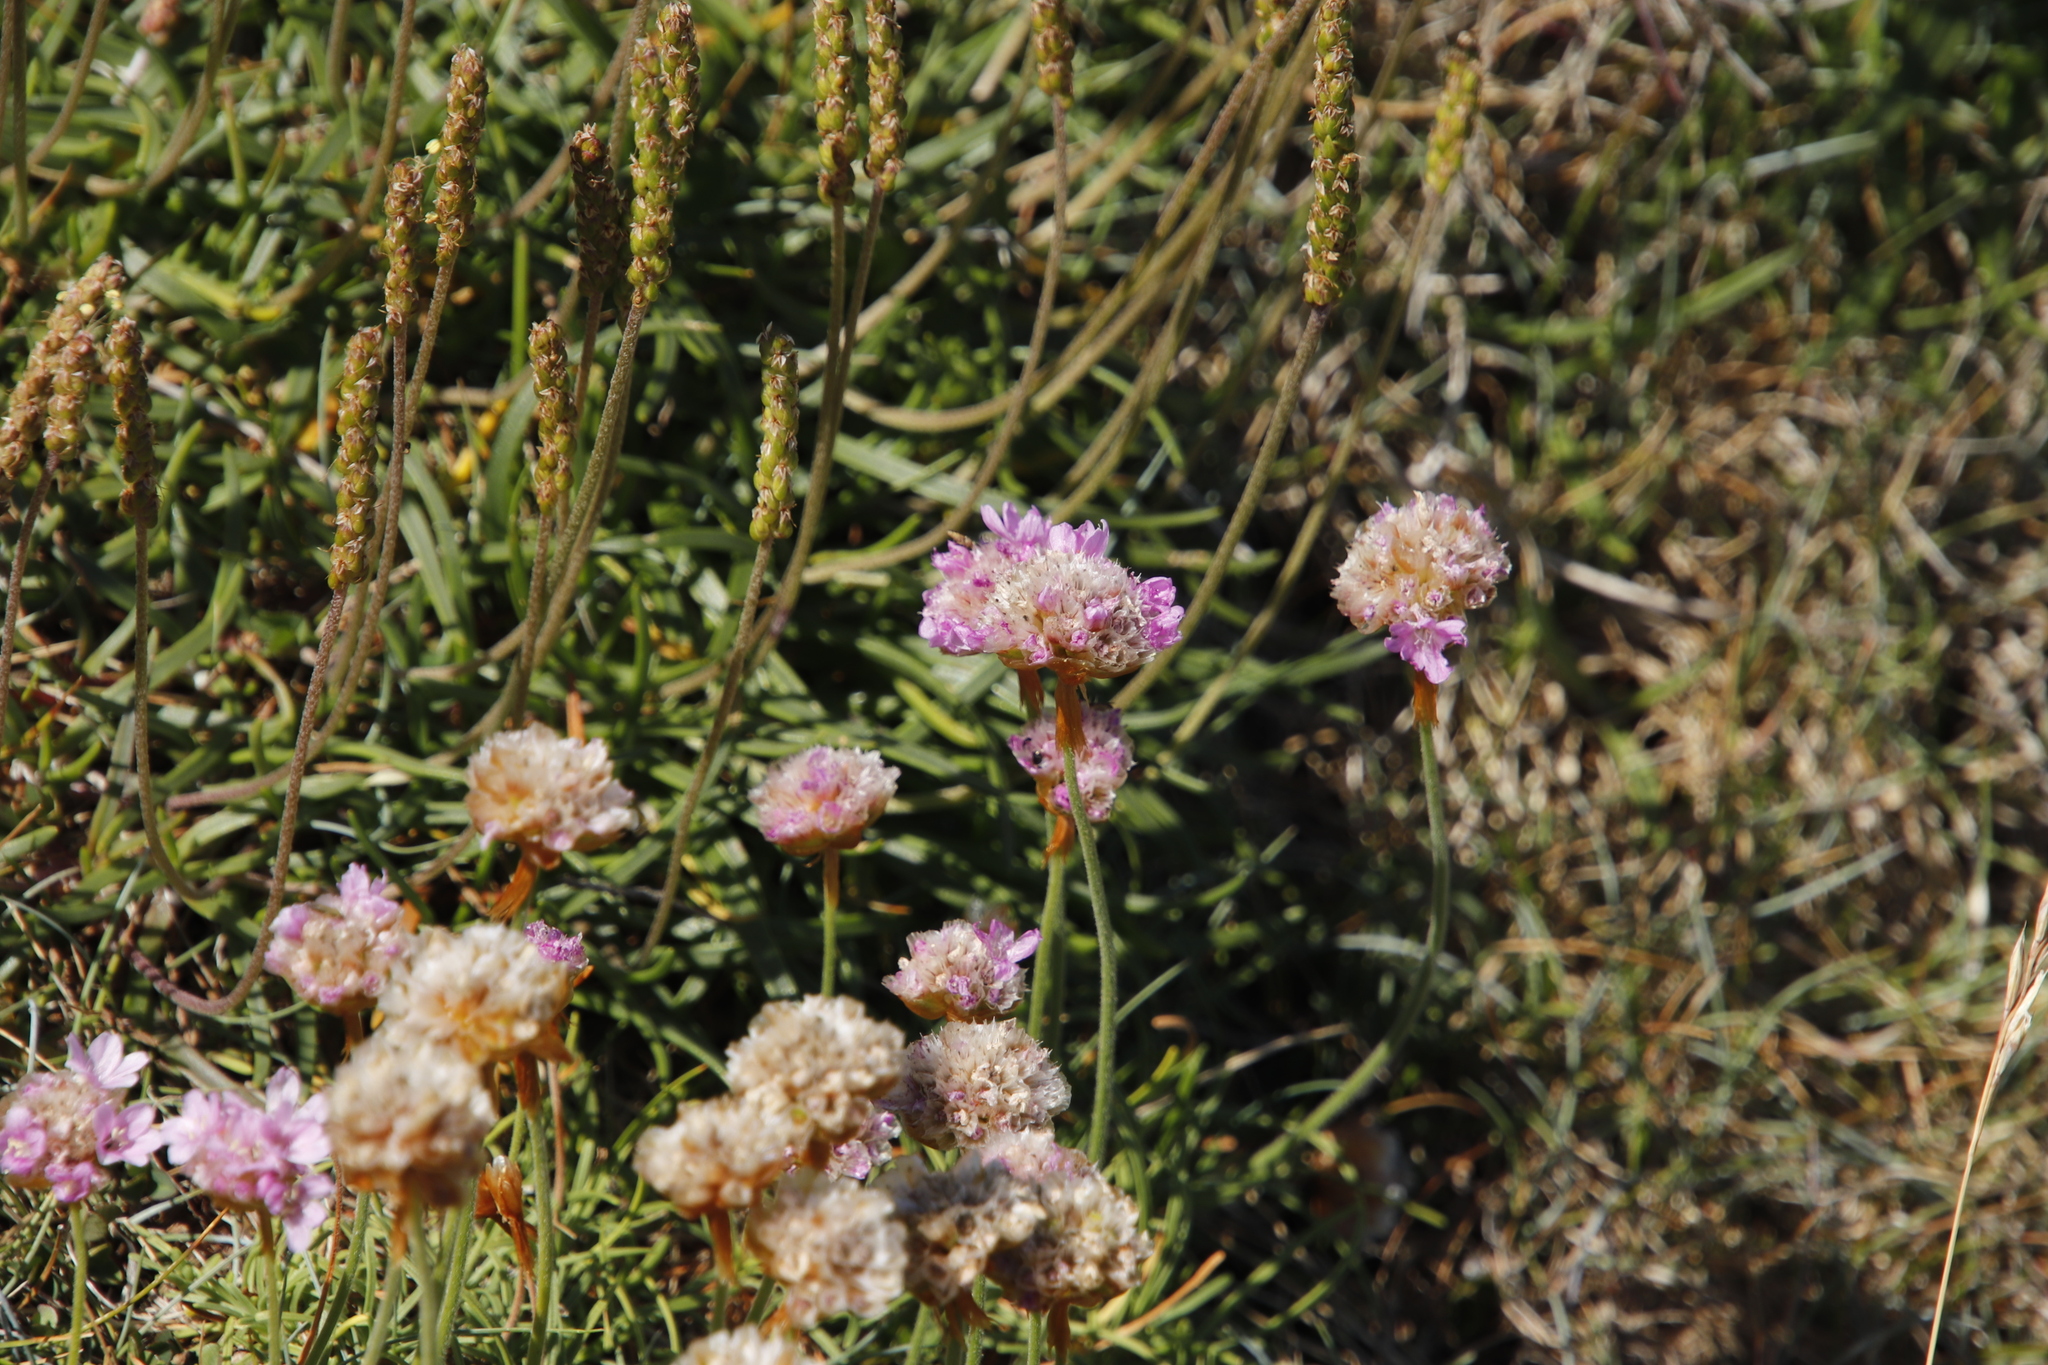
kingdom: Plantae
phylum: Tracheophyta
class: Magnoliopsida
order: Caryophyllales
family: Plumbaginaceae
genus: Armeria
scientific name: Armeria maritima
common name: Thrift
